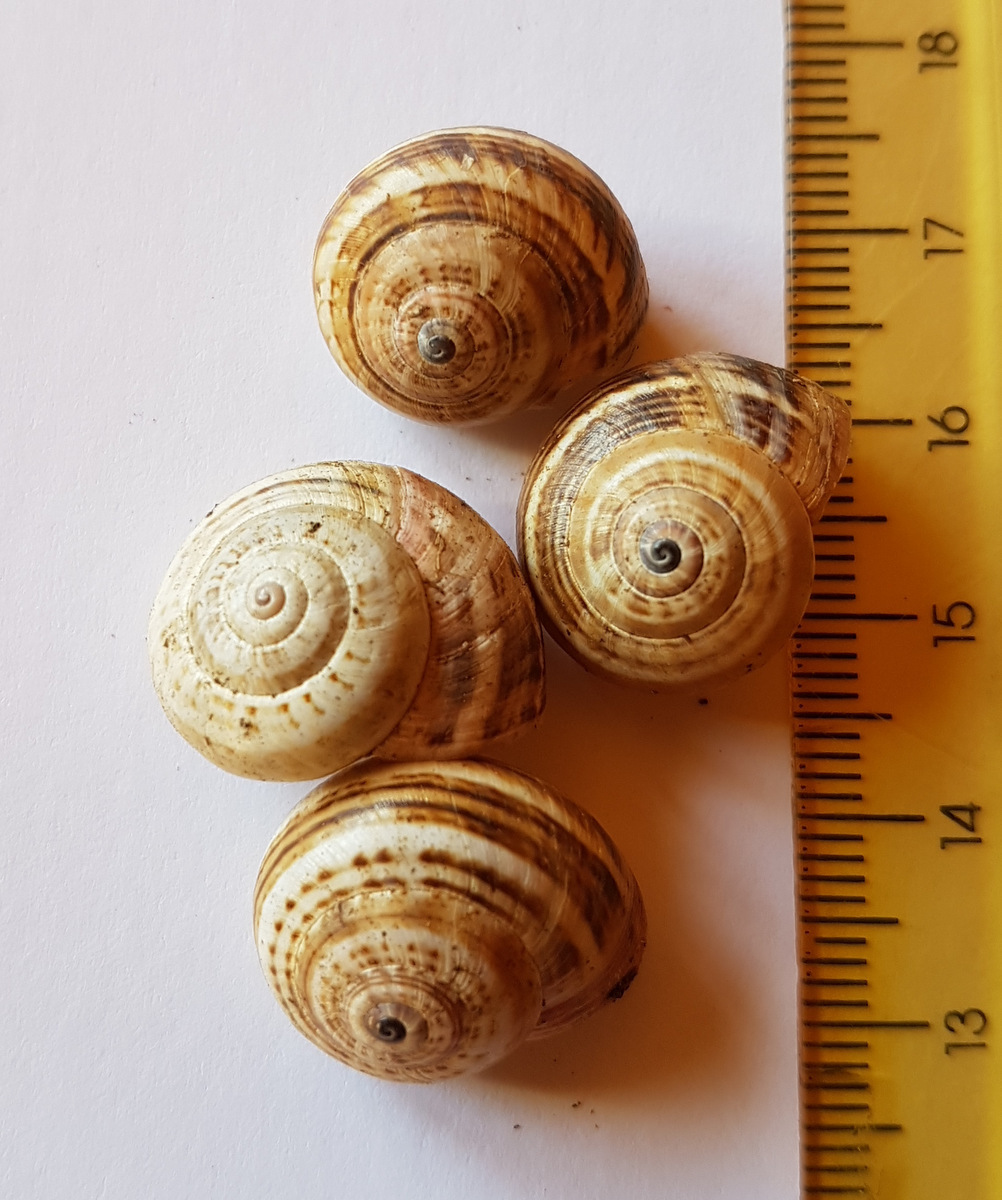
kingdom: Animalia
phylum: Mollusca
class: Gastropoda
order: Stylommatophora
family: Helicidae
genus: Theba
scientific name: Theba pisana
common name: White snail
